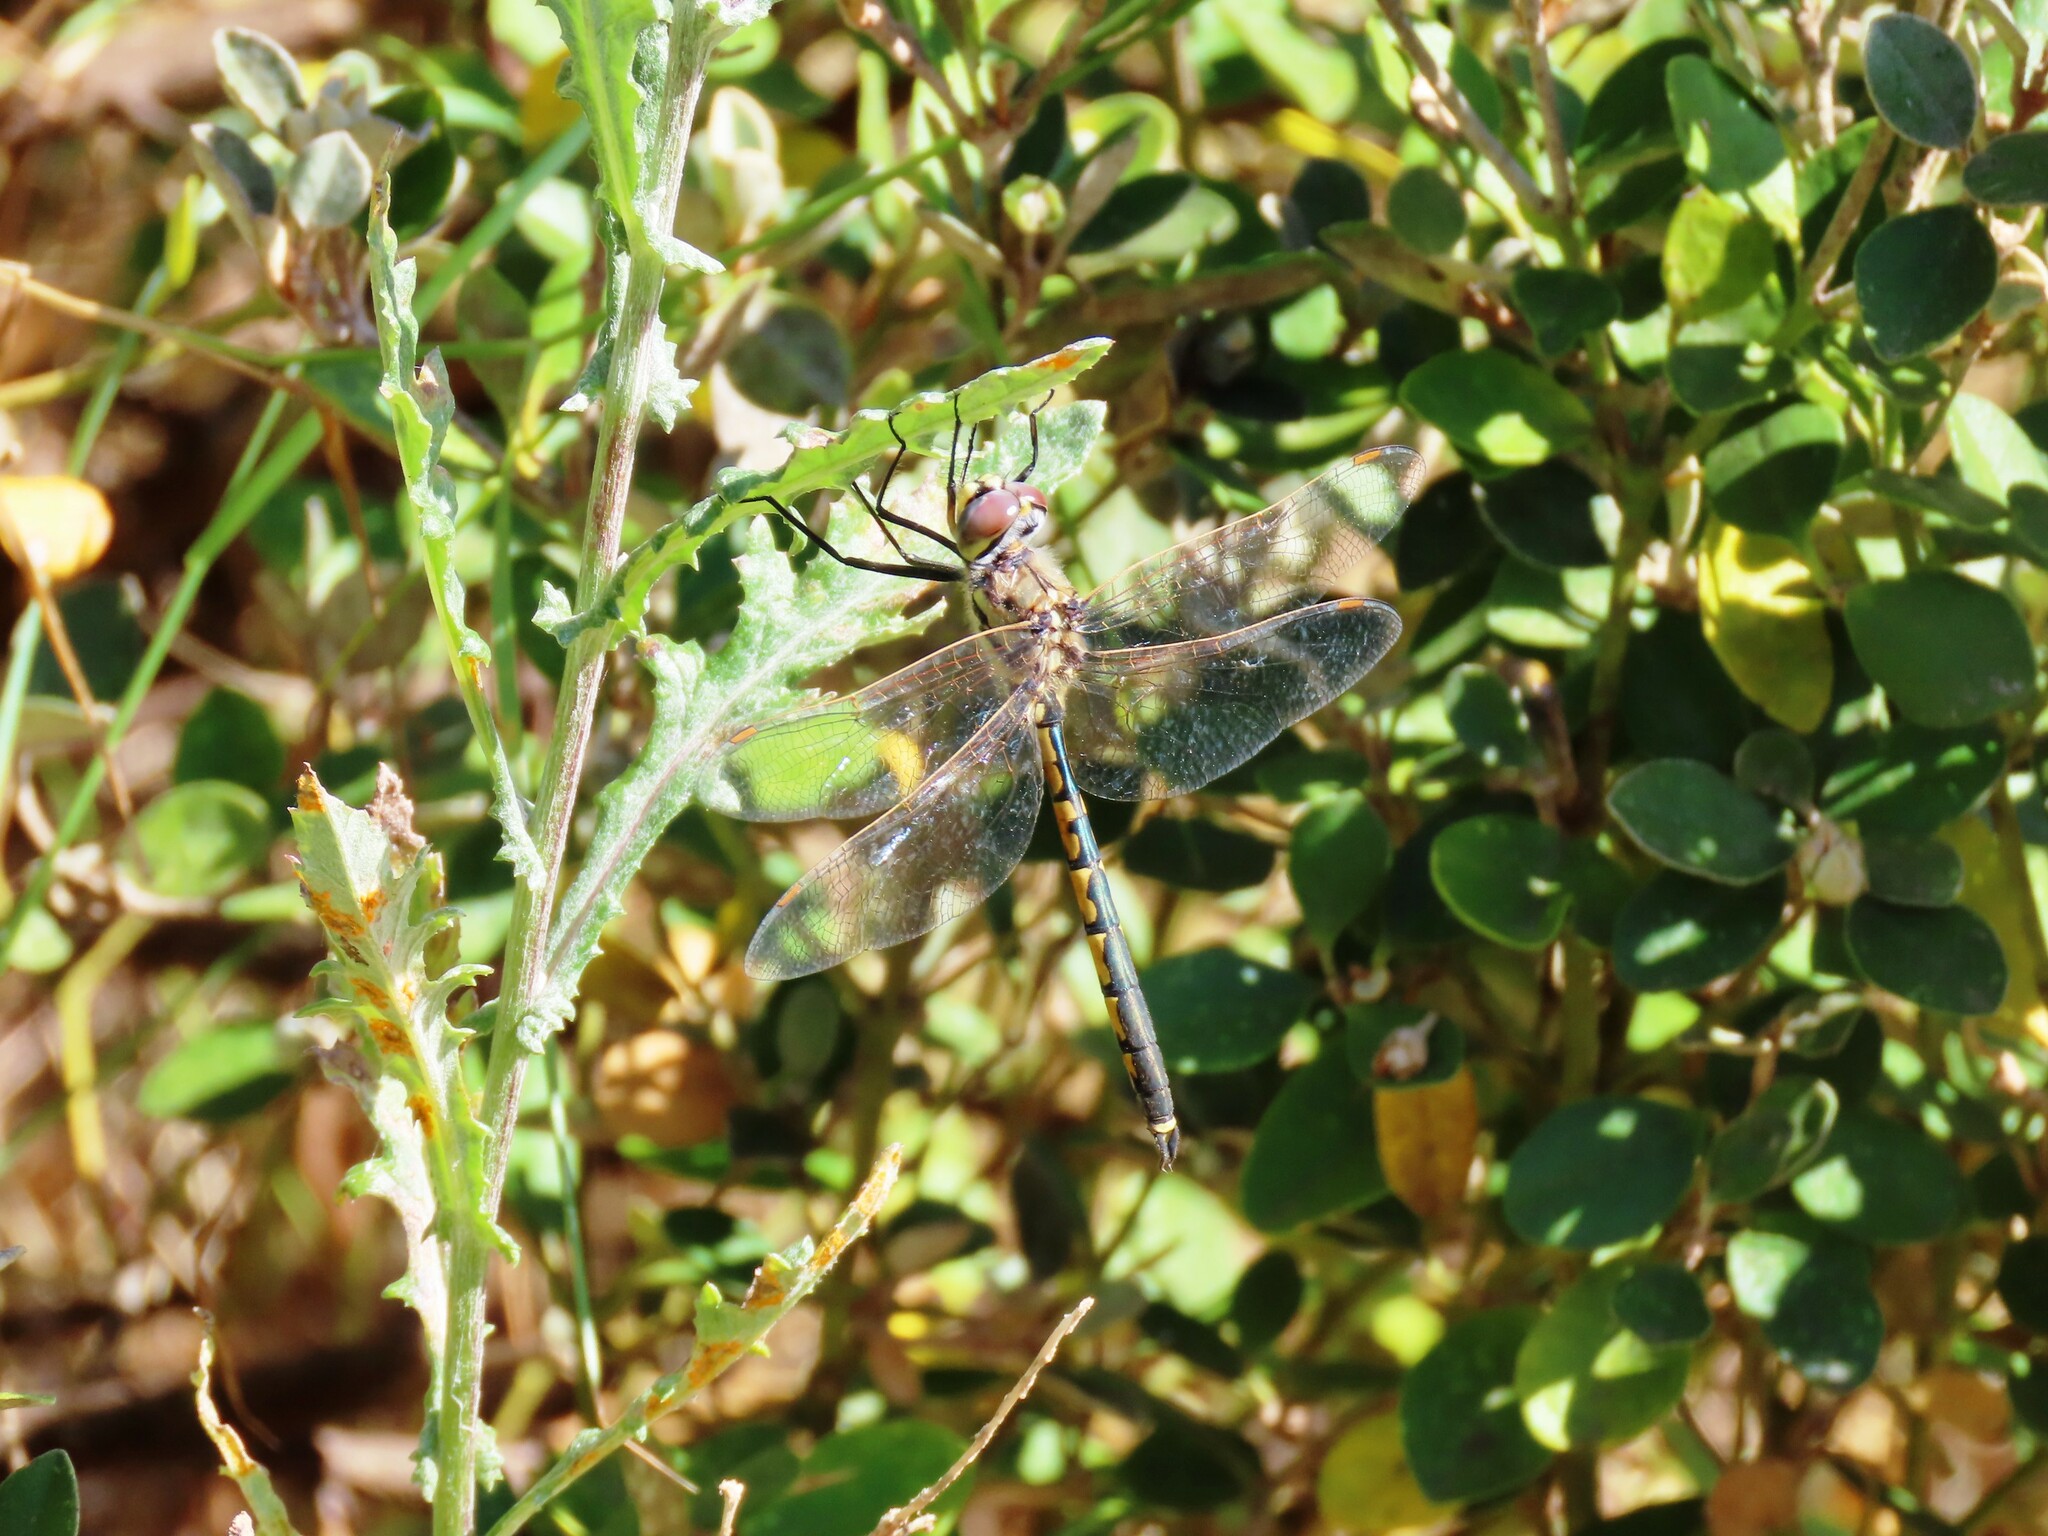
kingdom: Animalia
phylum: Arthropoda
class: Insecta
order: Odonata
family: Corduliidae
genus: Hemicordulia
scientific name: Hemicordulia tau
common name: Tau emerald
